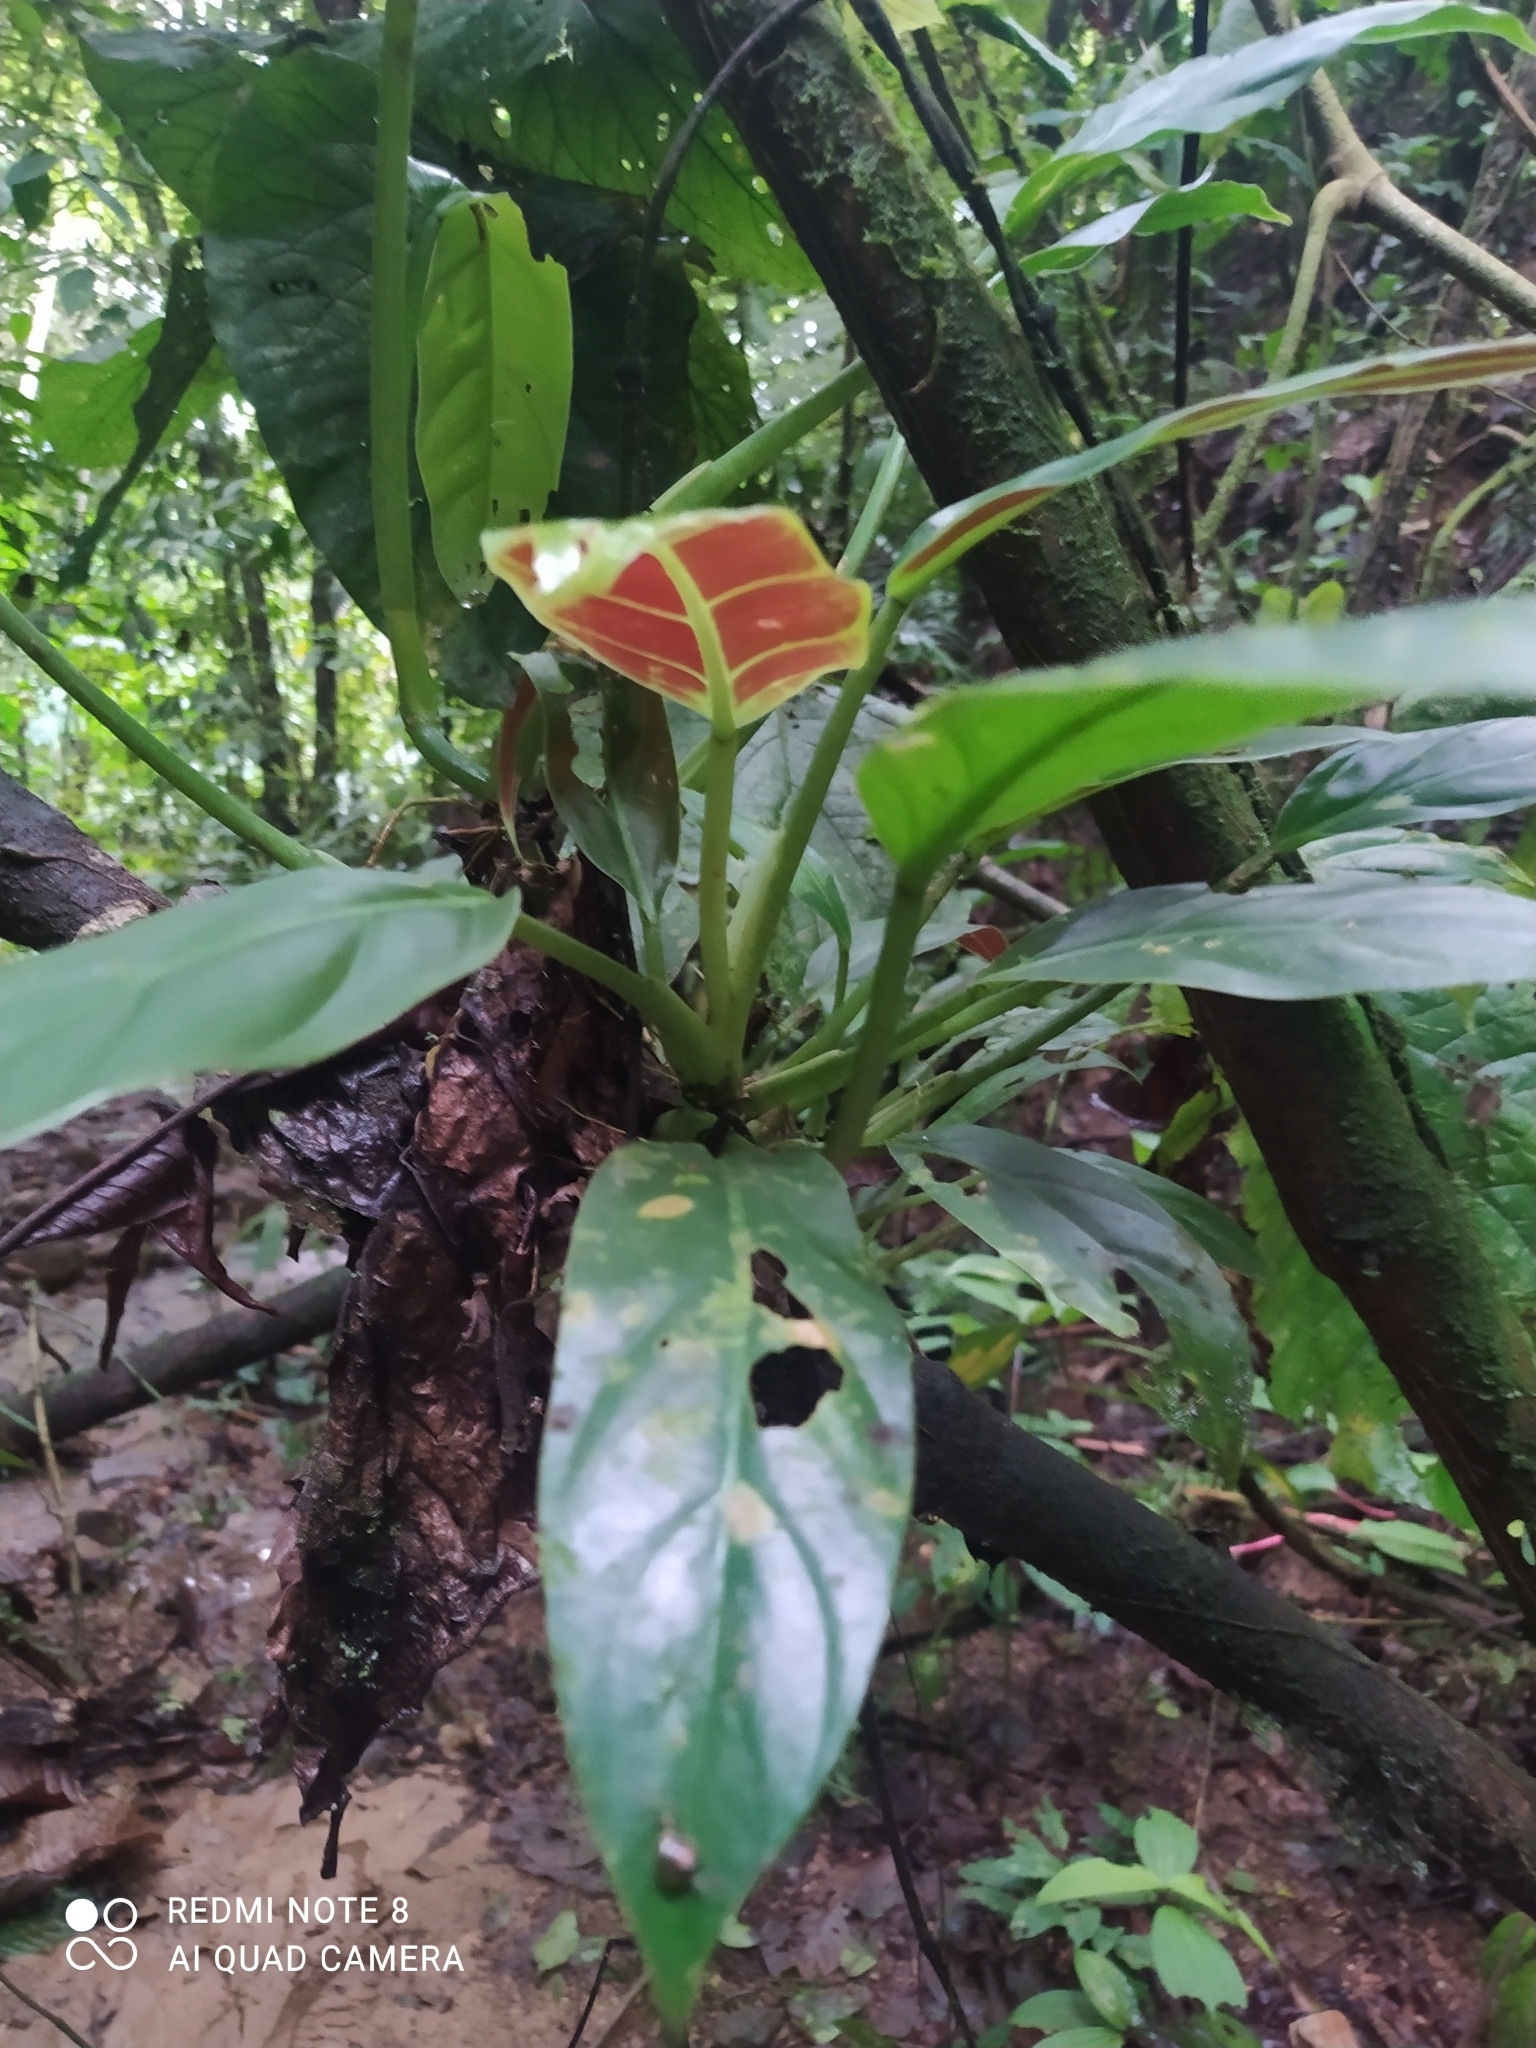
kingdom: Plantae
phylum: Tracheophyta
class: Liliopsida
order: Alismatales
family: Araceae
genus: Philodendron
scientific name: Philodendron subhastatum
